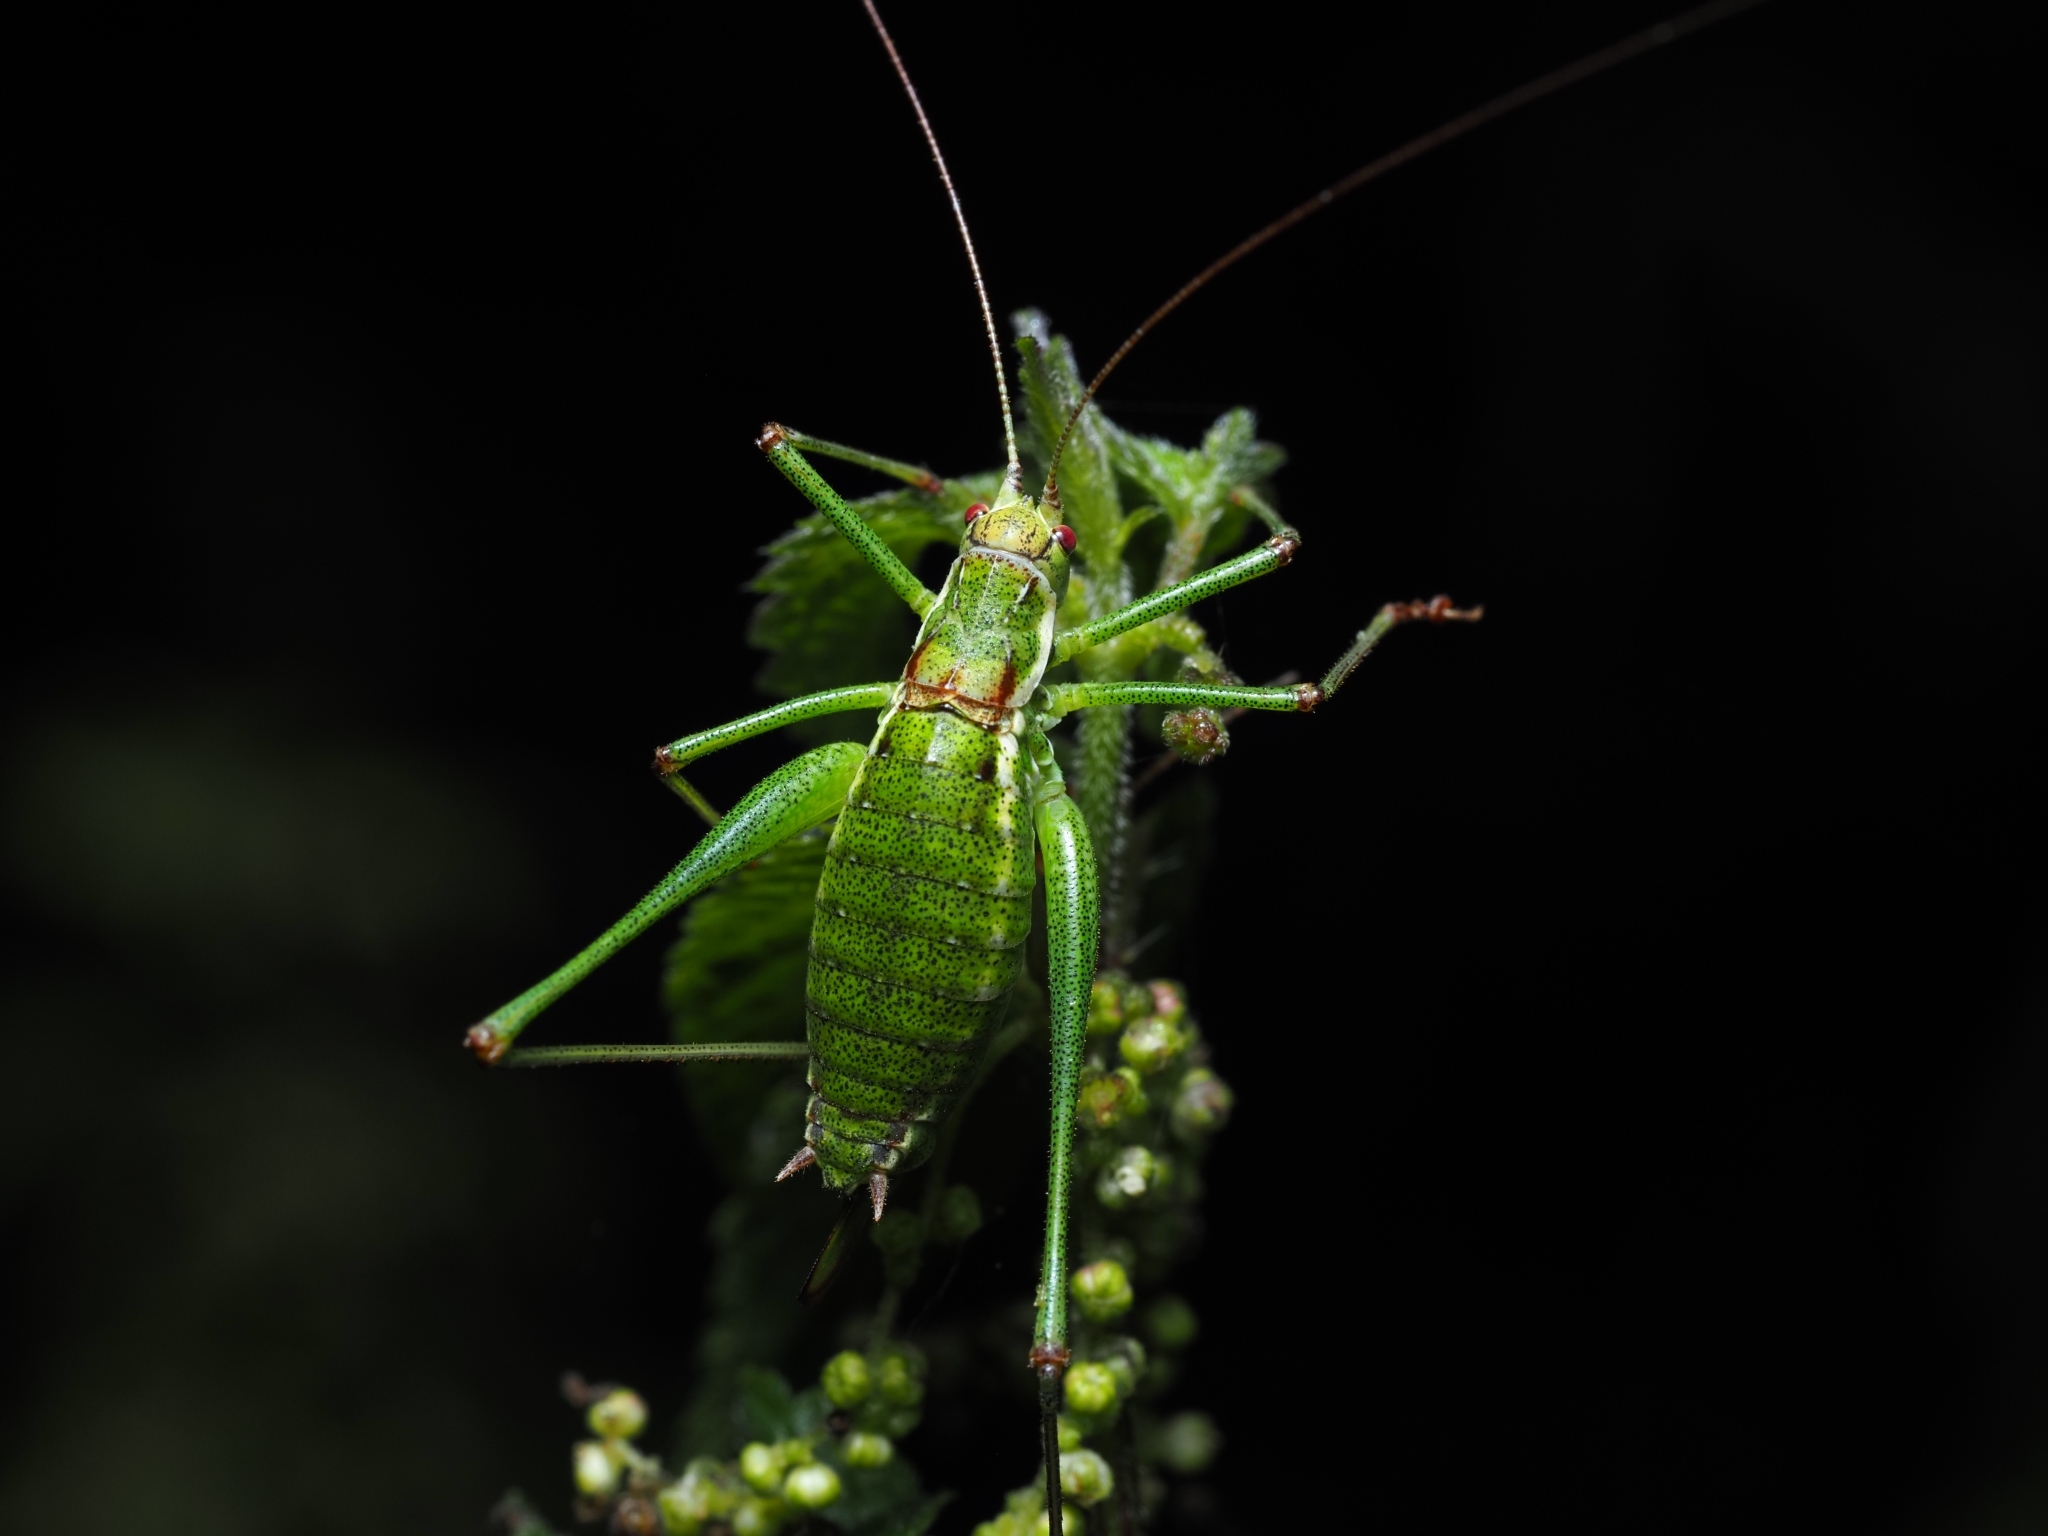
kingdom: Animalia
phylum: Arthropoda
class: Insecta
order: Orthoptera
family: Tettigoniidae
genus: Leptophyes
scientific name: Leptophyes albovittata
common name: Striped bush-cricket
